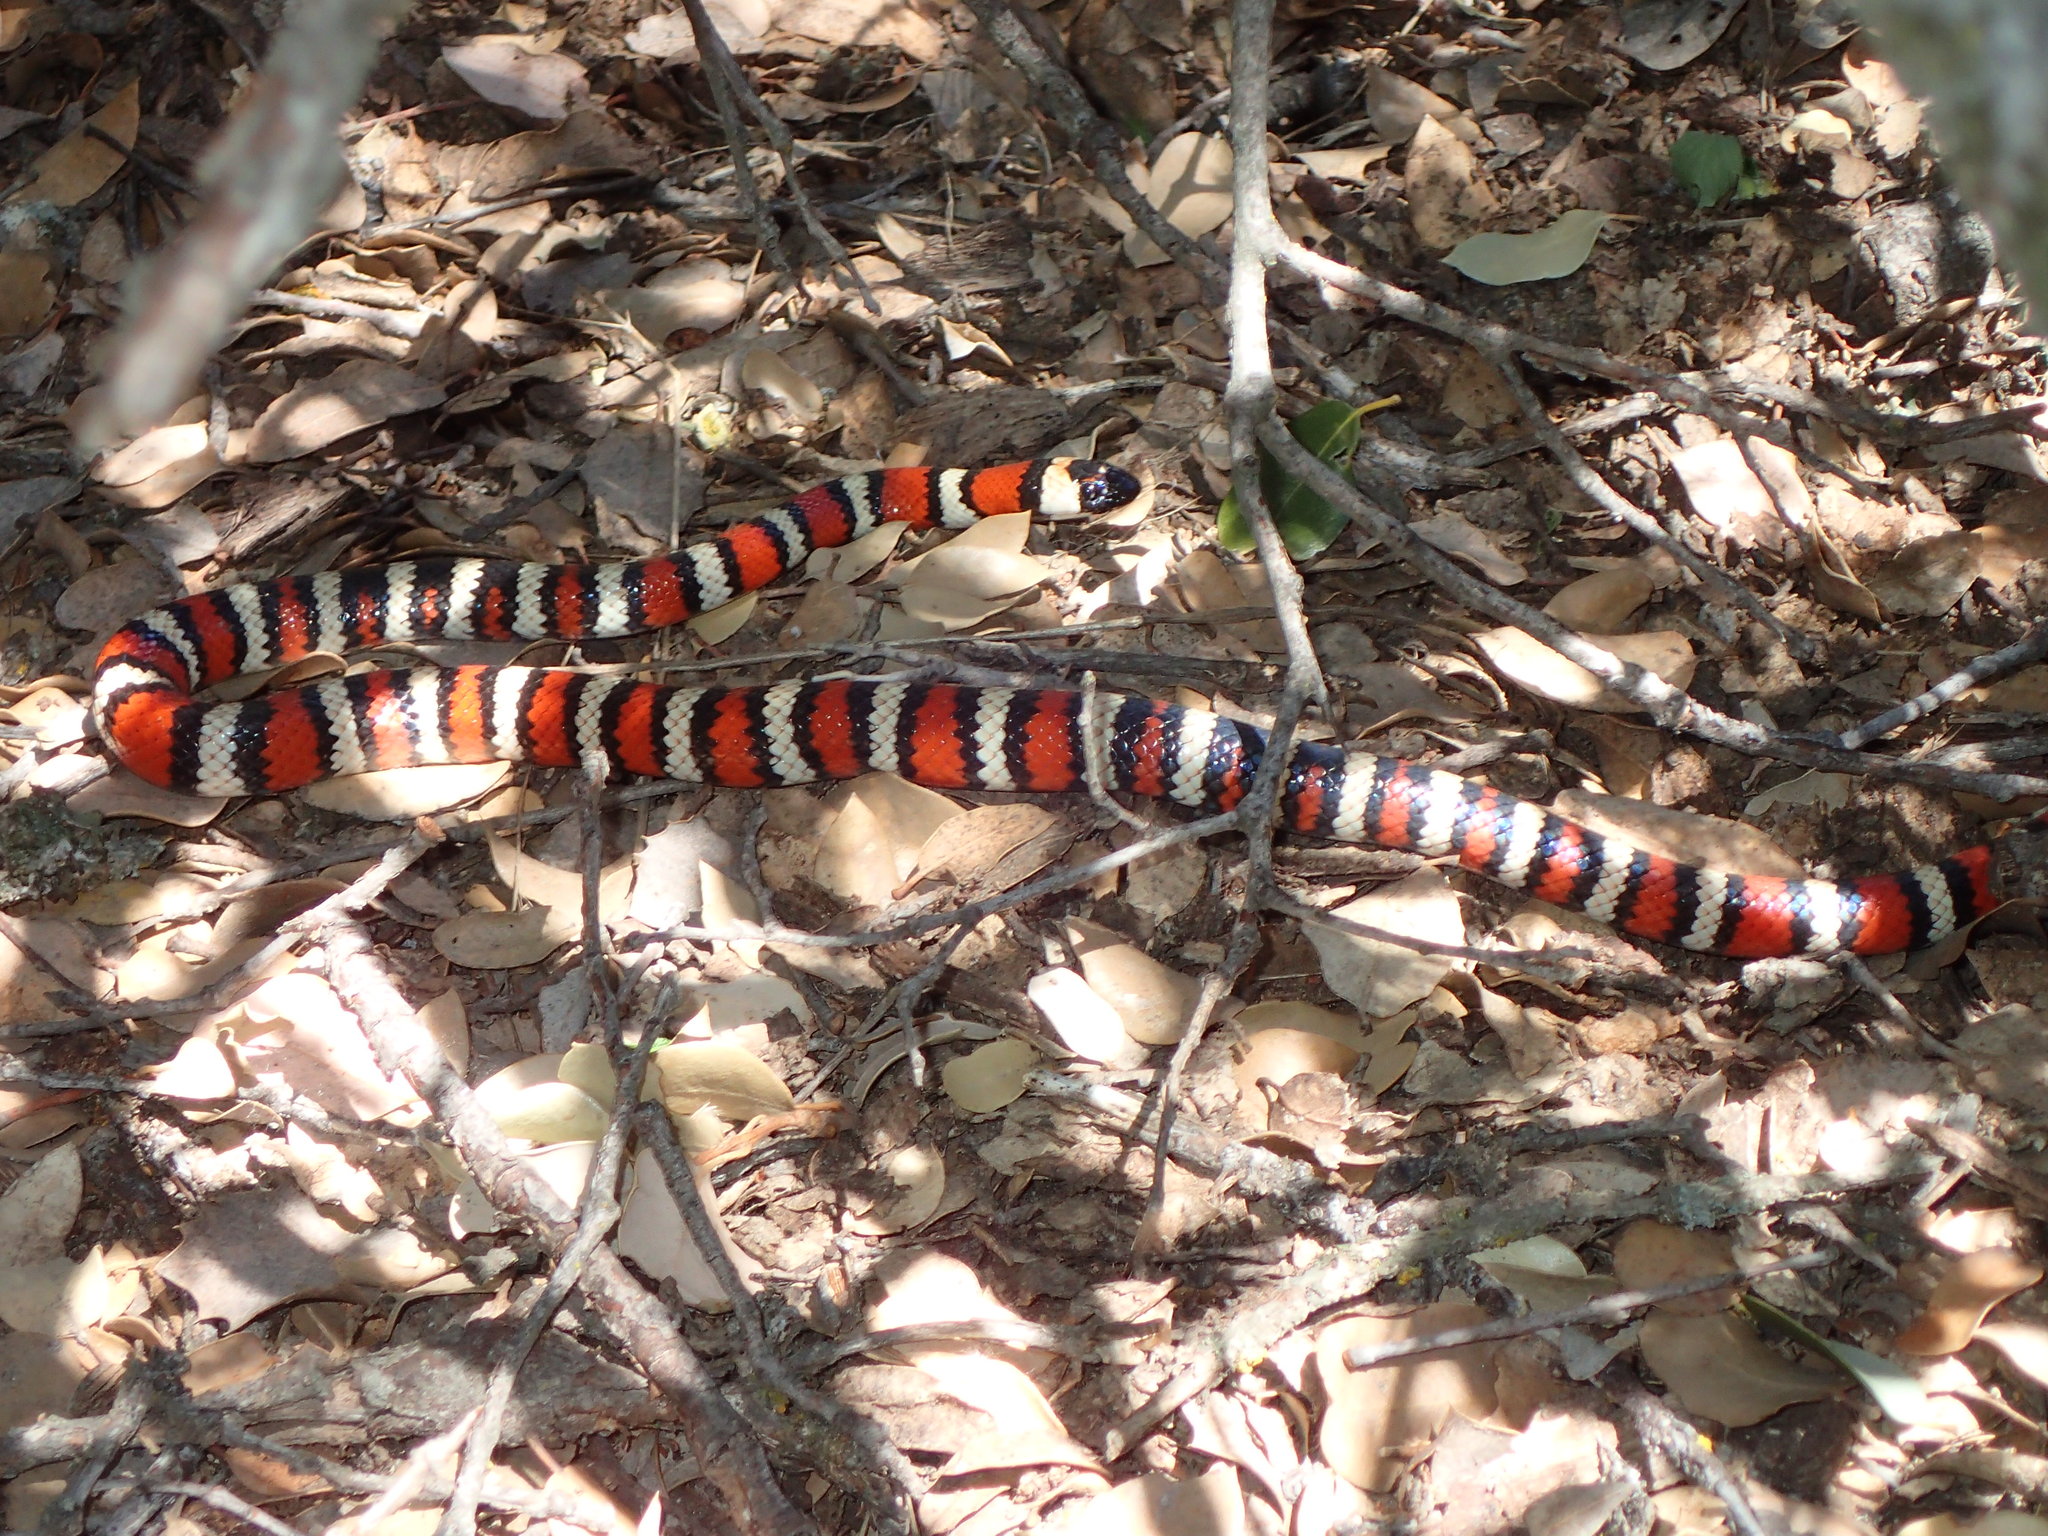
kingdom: Animalia
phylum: Chordata
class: Squamata
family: Colubridae
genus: Lampropeltis
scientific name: Lampropeltis zonata
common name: California mountain kingsnake
